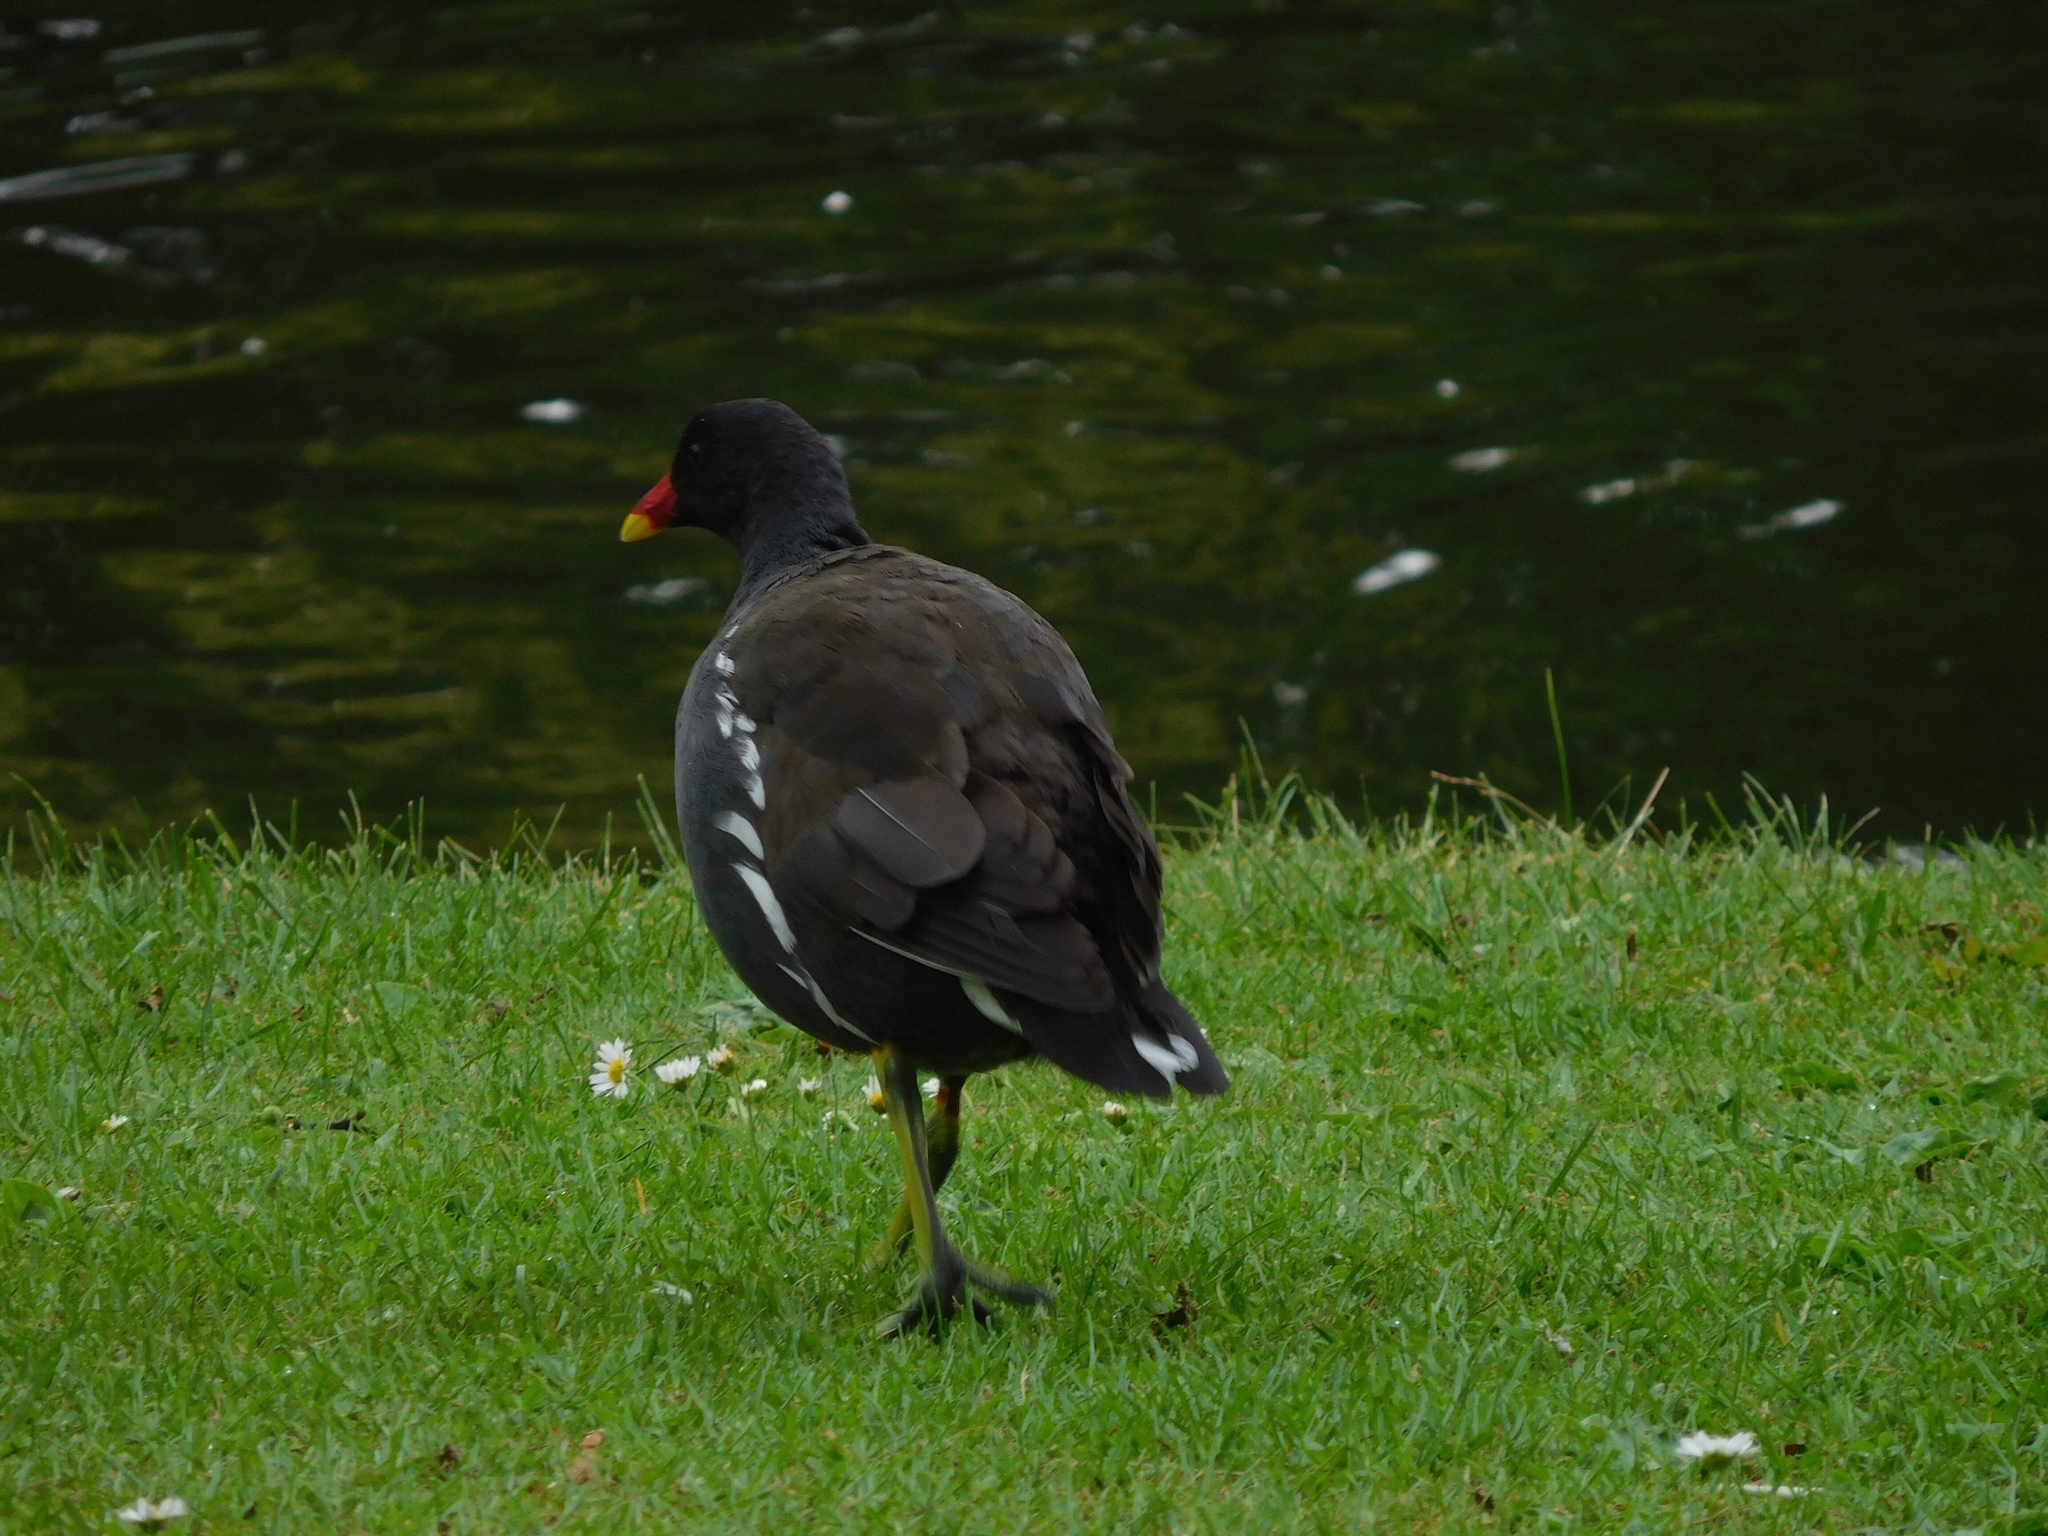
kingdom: Animalia
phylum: Chordata
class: Aves
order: Gruiformes
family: Rallidae
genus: Gallinula
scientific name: Gallinula chloropus
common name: Common moorhen
